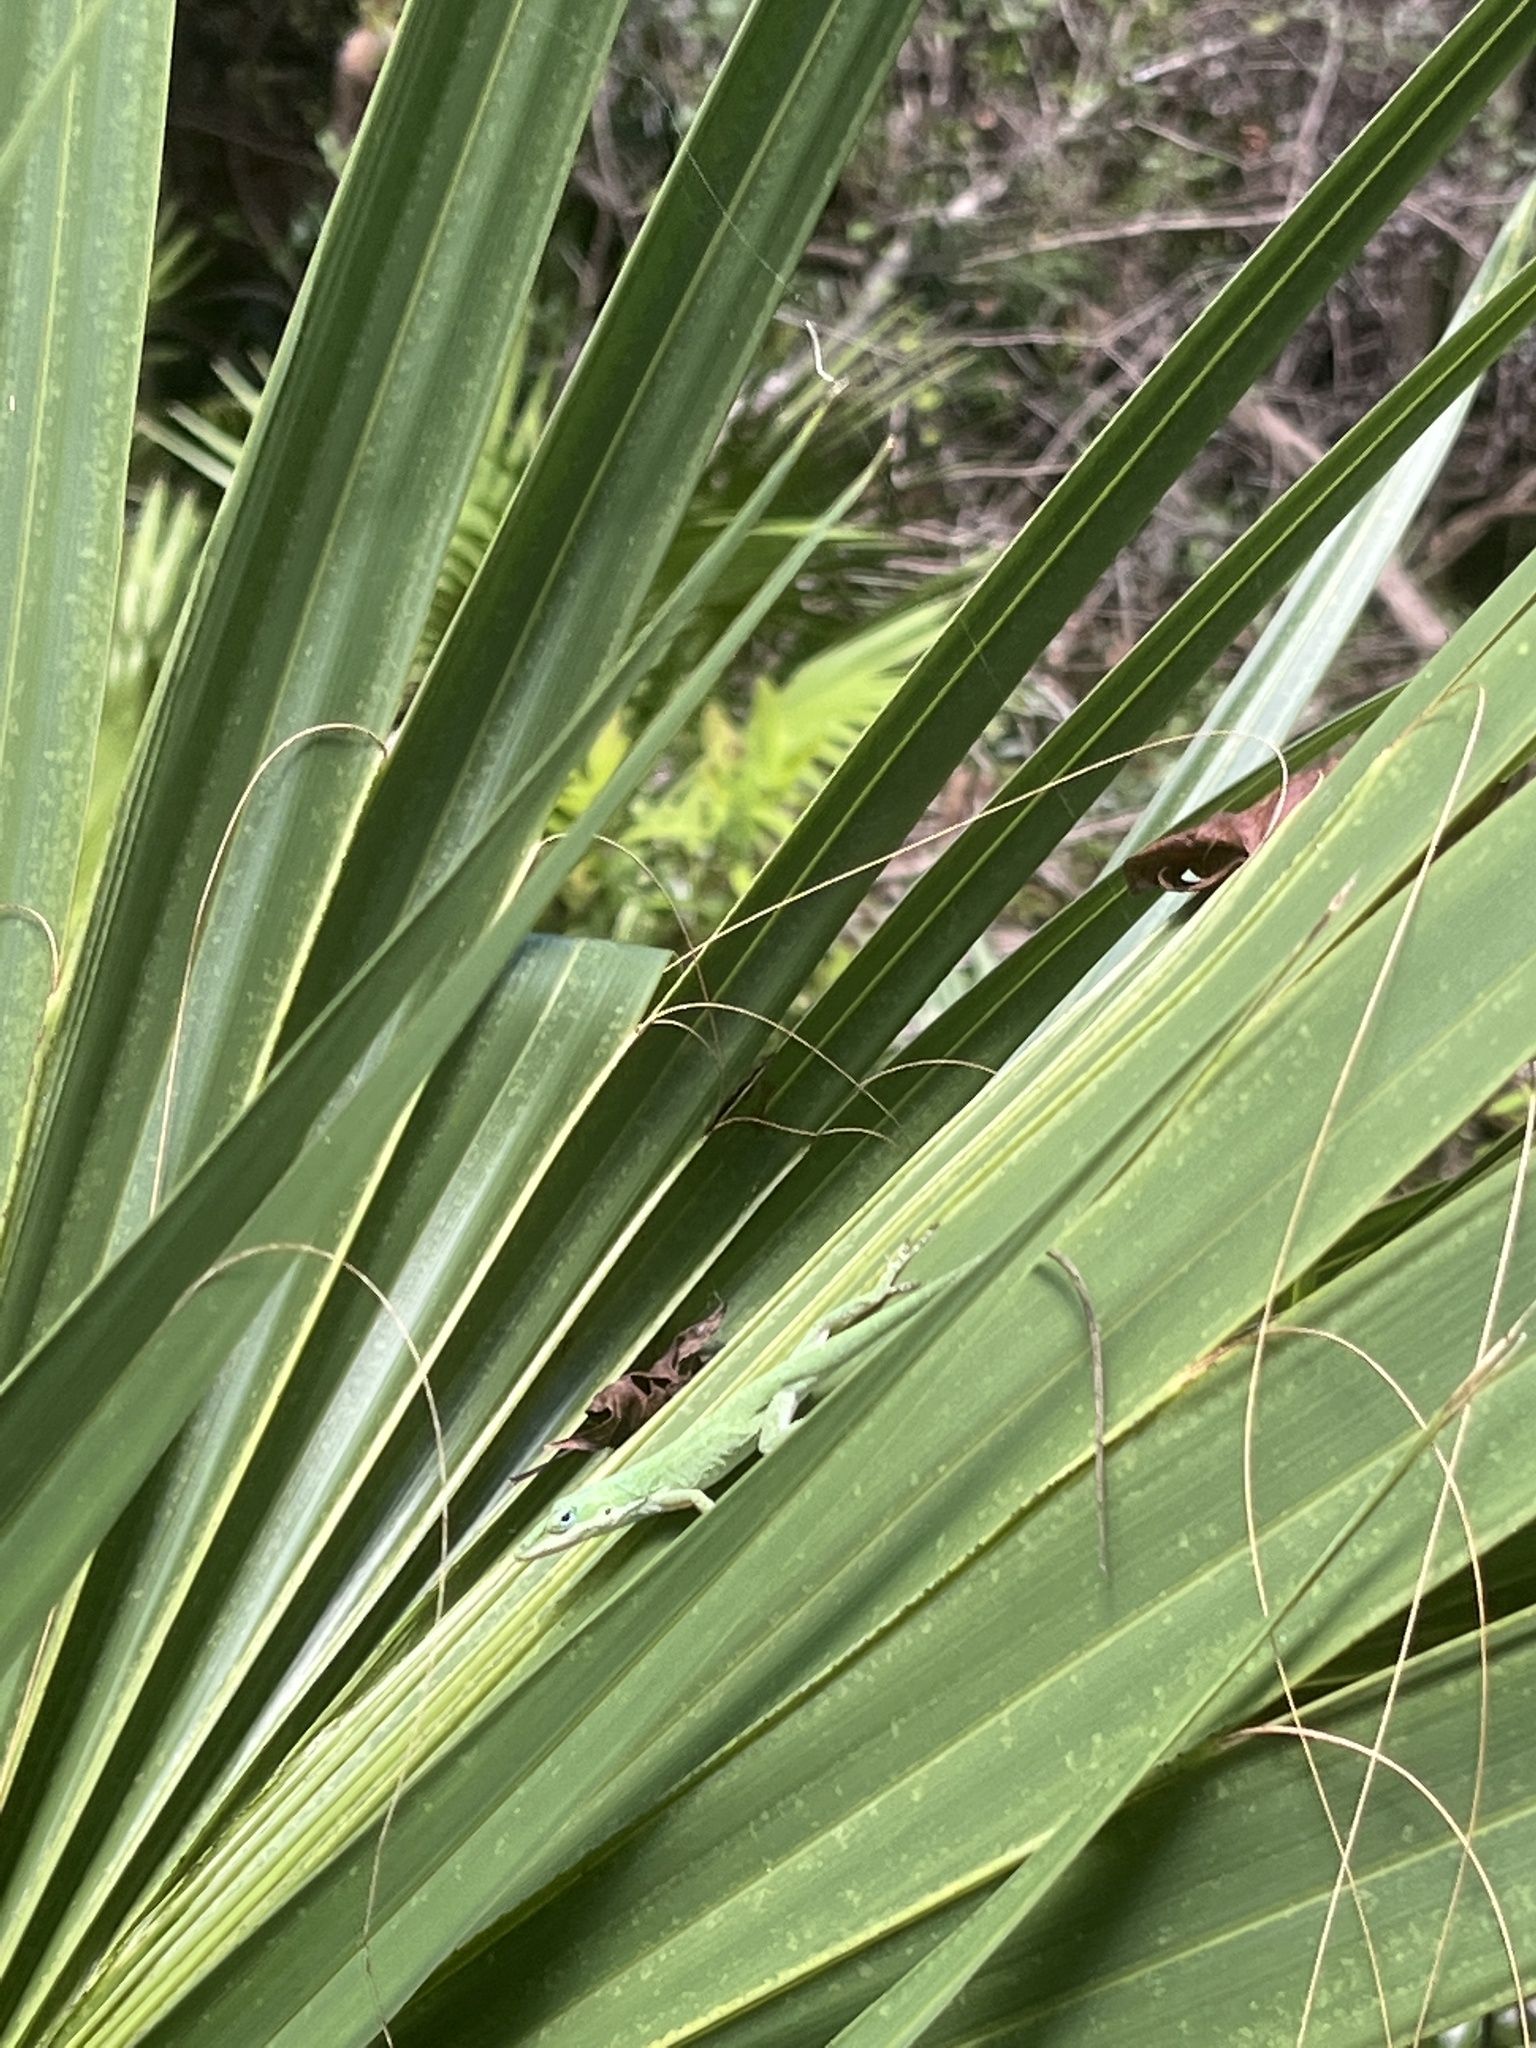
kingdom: Animalia
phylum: Chordata
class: Squamata
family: Dactyloidae
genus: Anolis
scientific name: Anolis carolinensis
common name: Green anole
